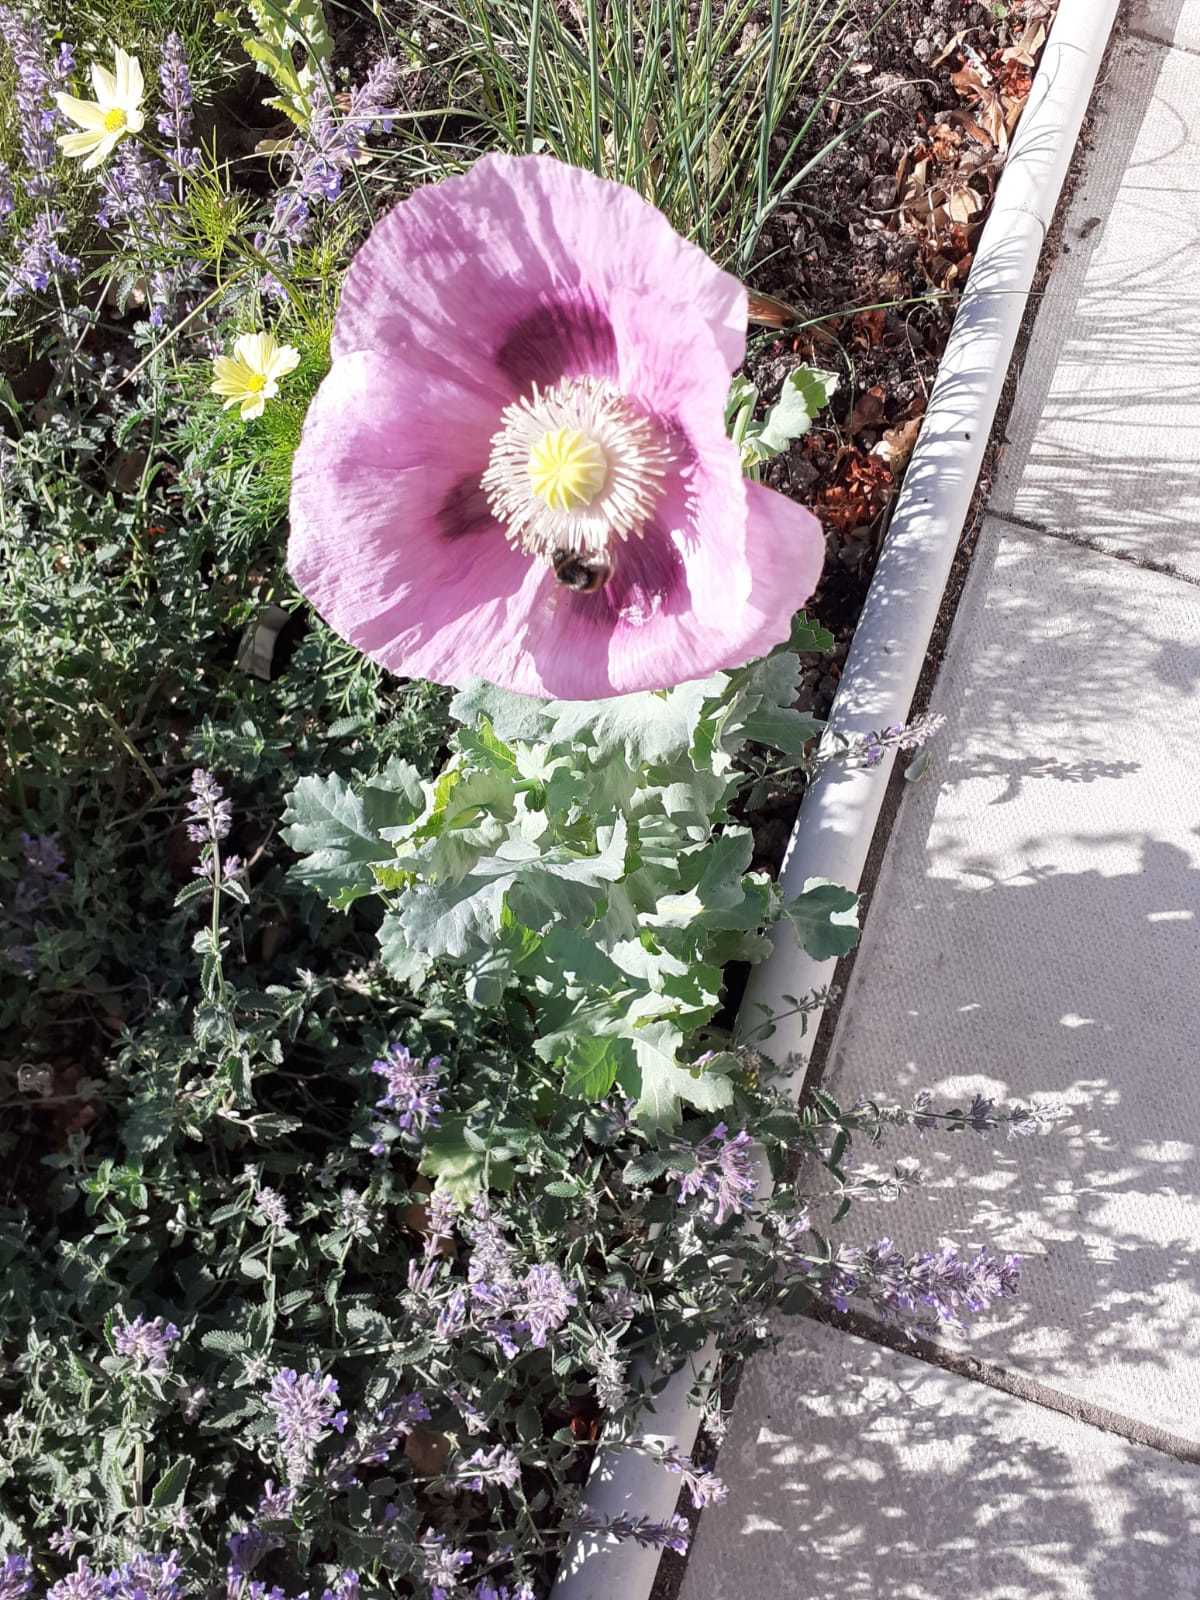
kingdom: Plantae
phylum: Tracheophyta
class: Magnoliopsida
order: Ranunculales
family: Papaveraceae
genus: Papaver
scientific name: Papaver somniferum
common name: Opium poppy
